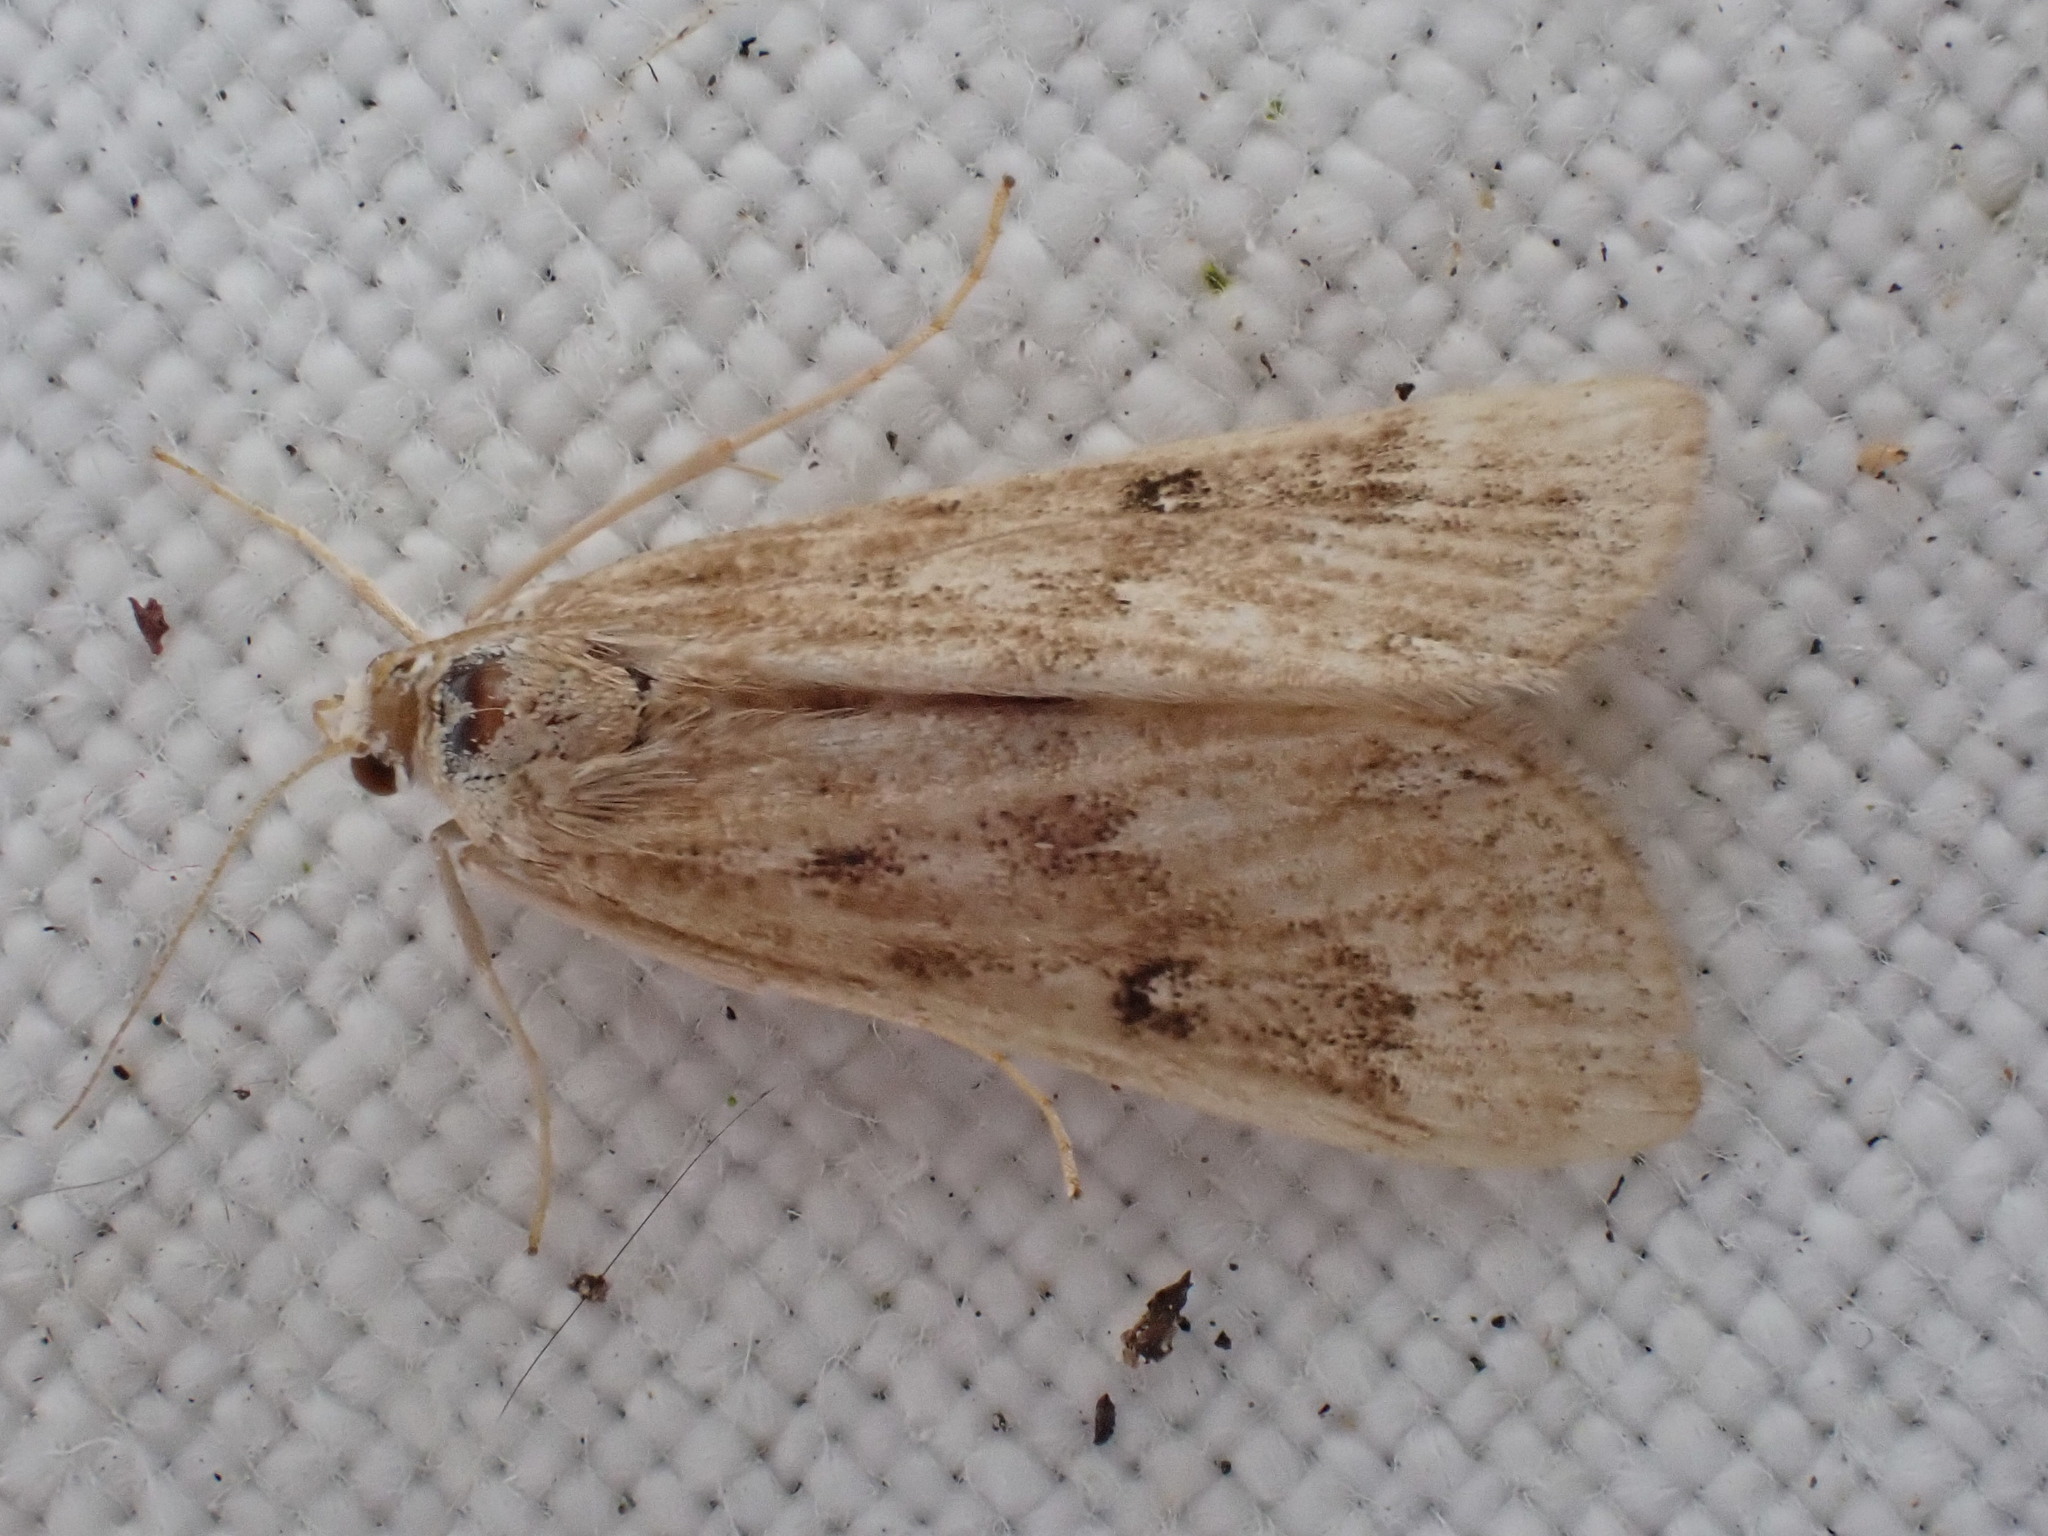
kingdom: Animalia
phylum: Arthropoda
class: Insecta
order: Lepidoptera
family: Crambidae
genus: Parapoynx
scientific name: Parapoynx stratiotata
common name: Ringed china-mark
